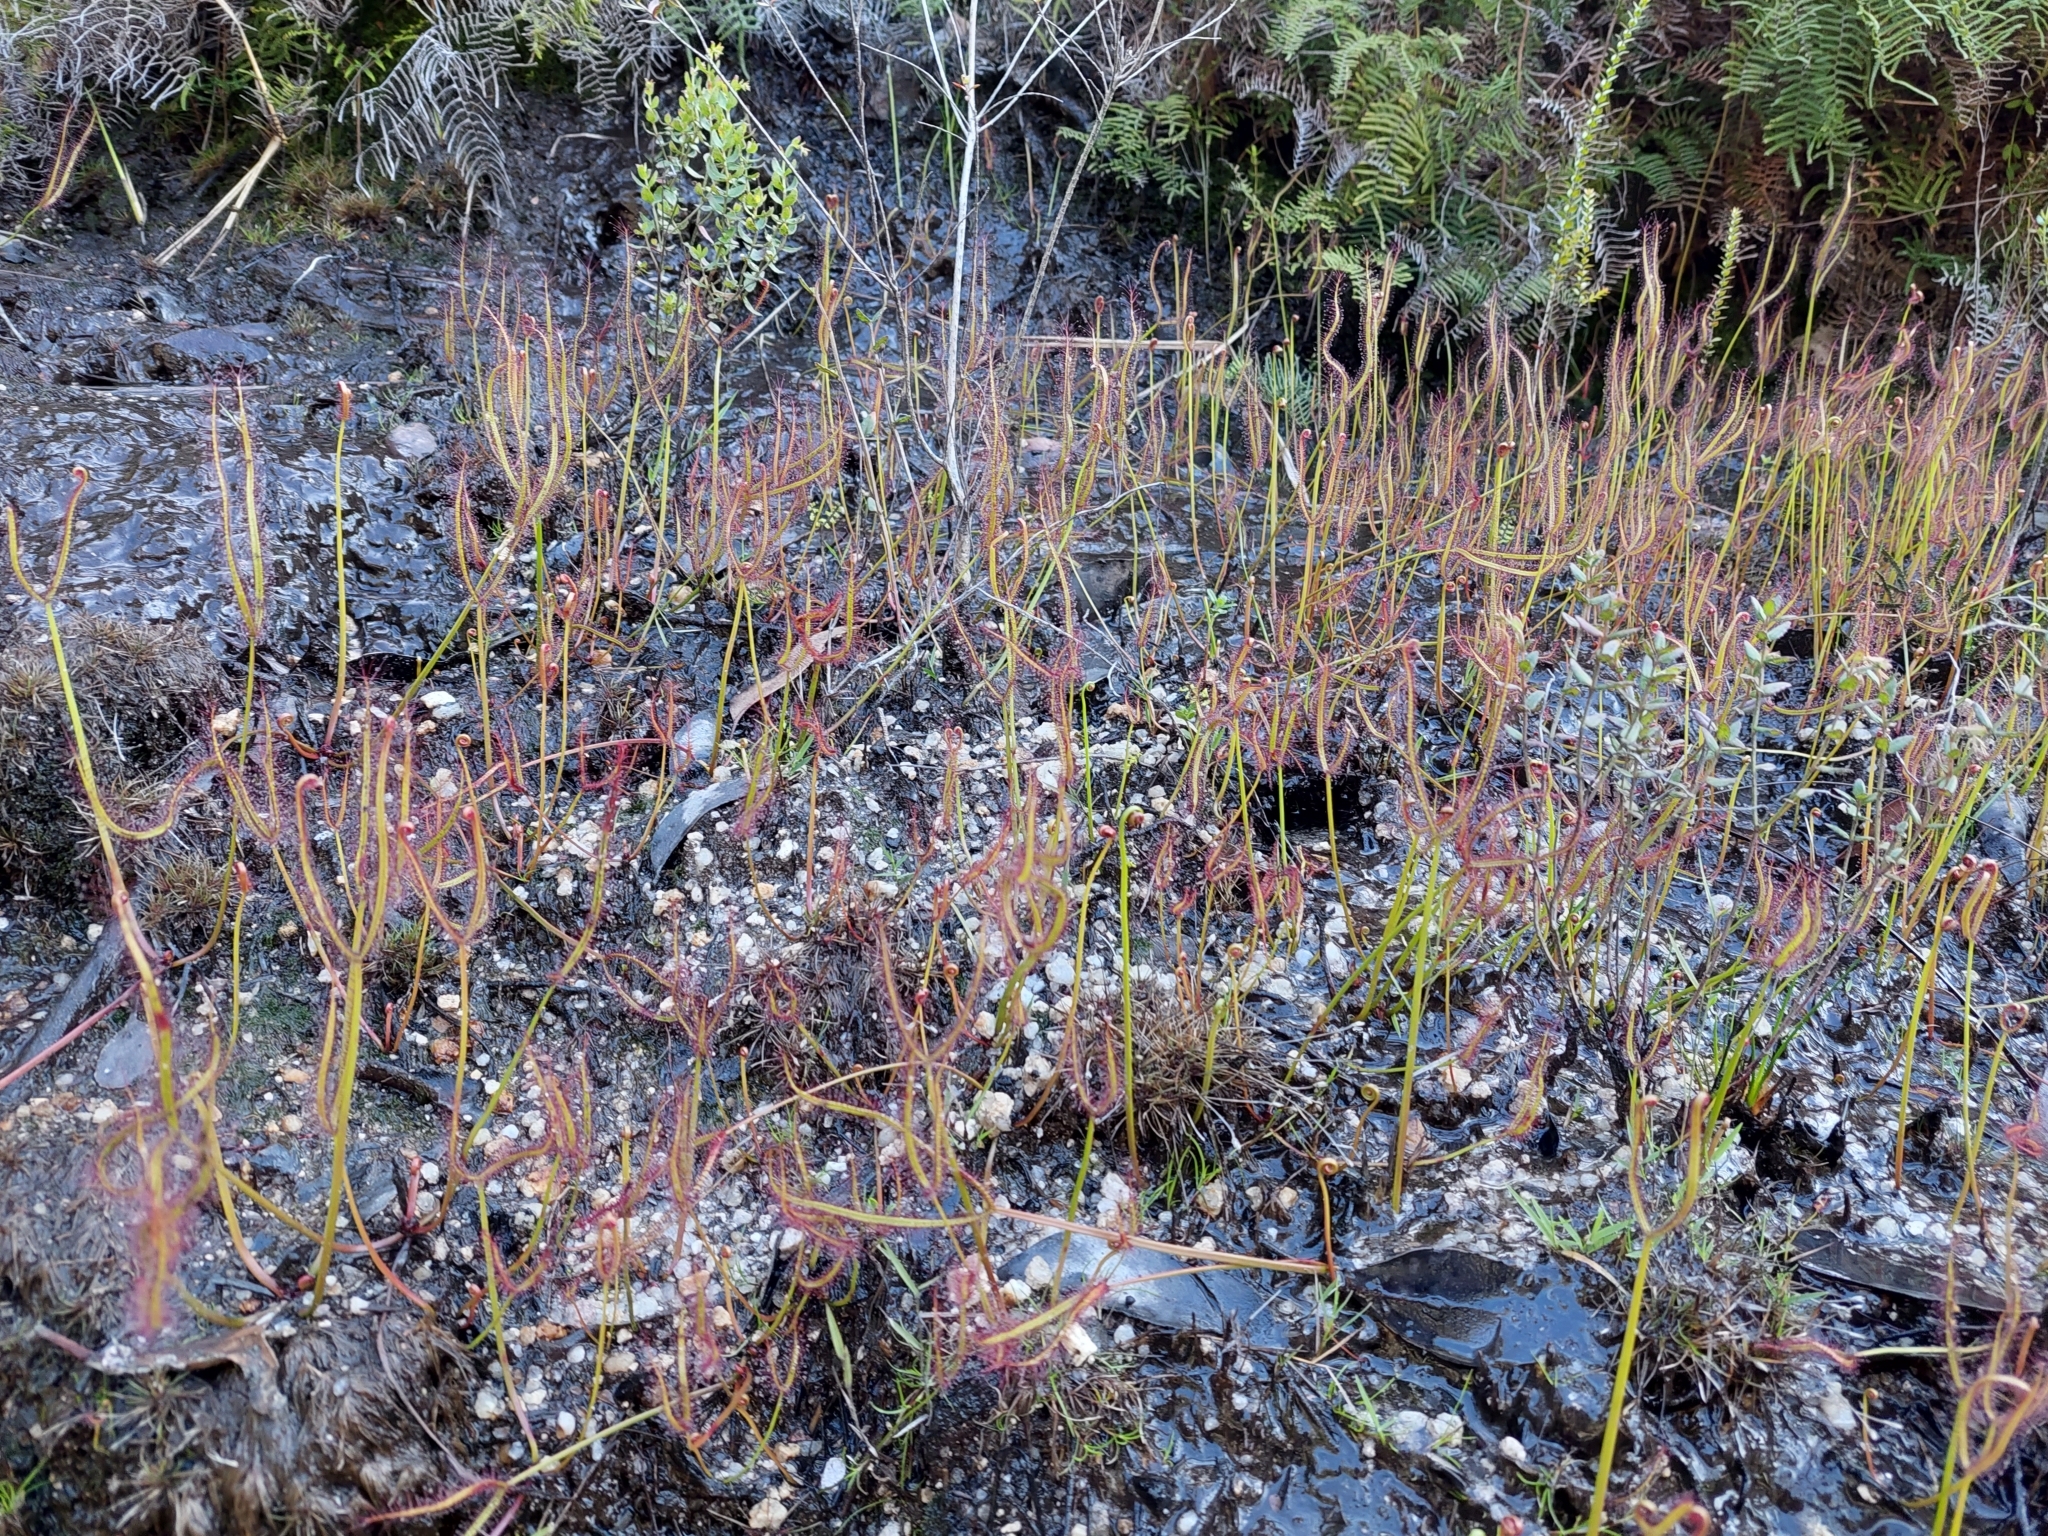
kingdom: Plantae
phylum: Tracheophyta
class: Magnoliopsida
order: Caryophyllales
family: Droseraceae
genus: Drosera
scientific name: Drosera binata
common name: Forked sundew
